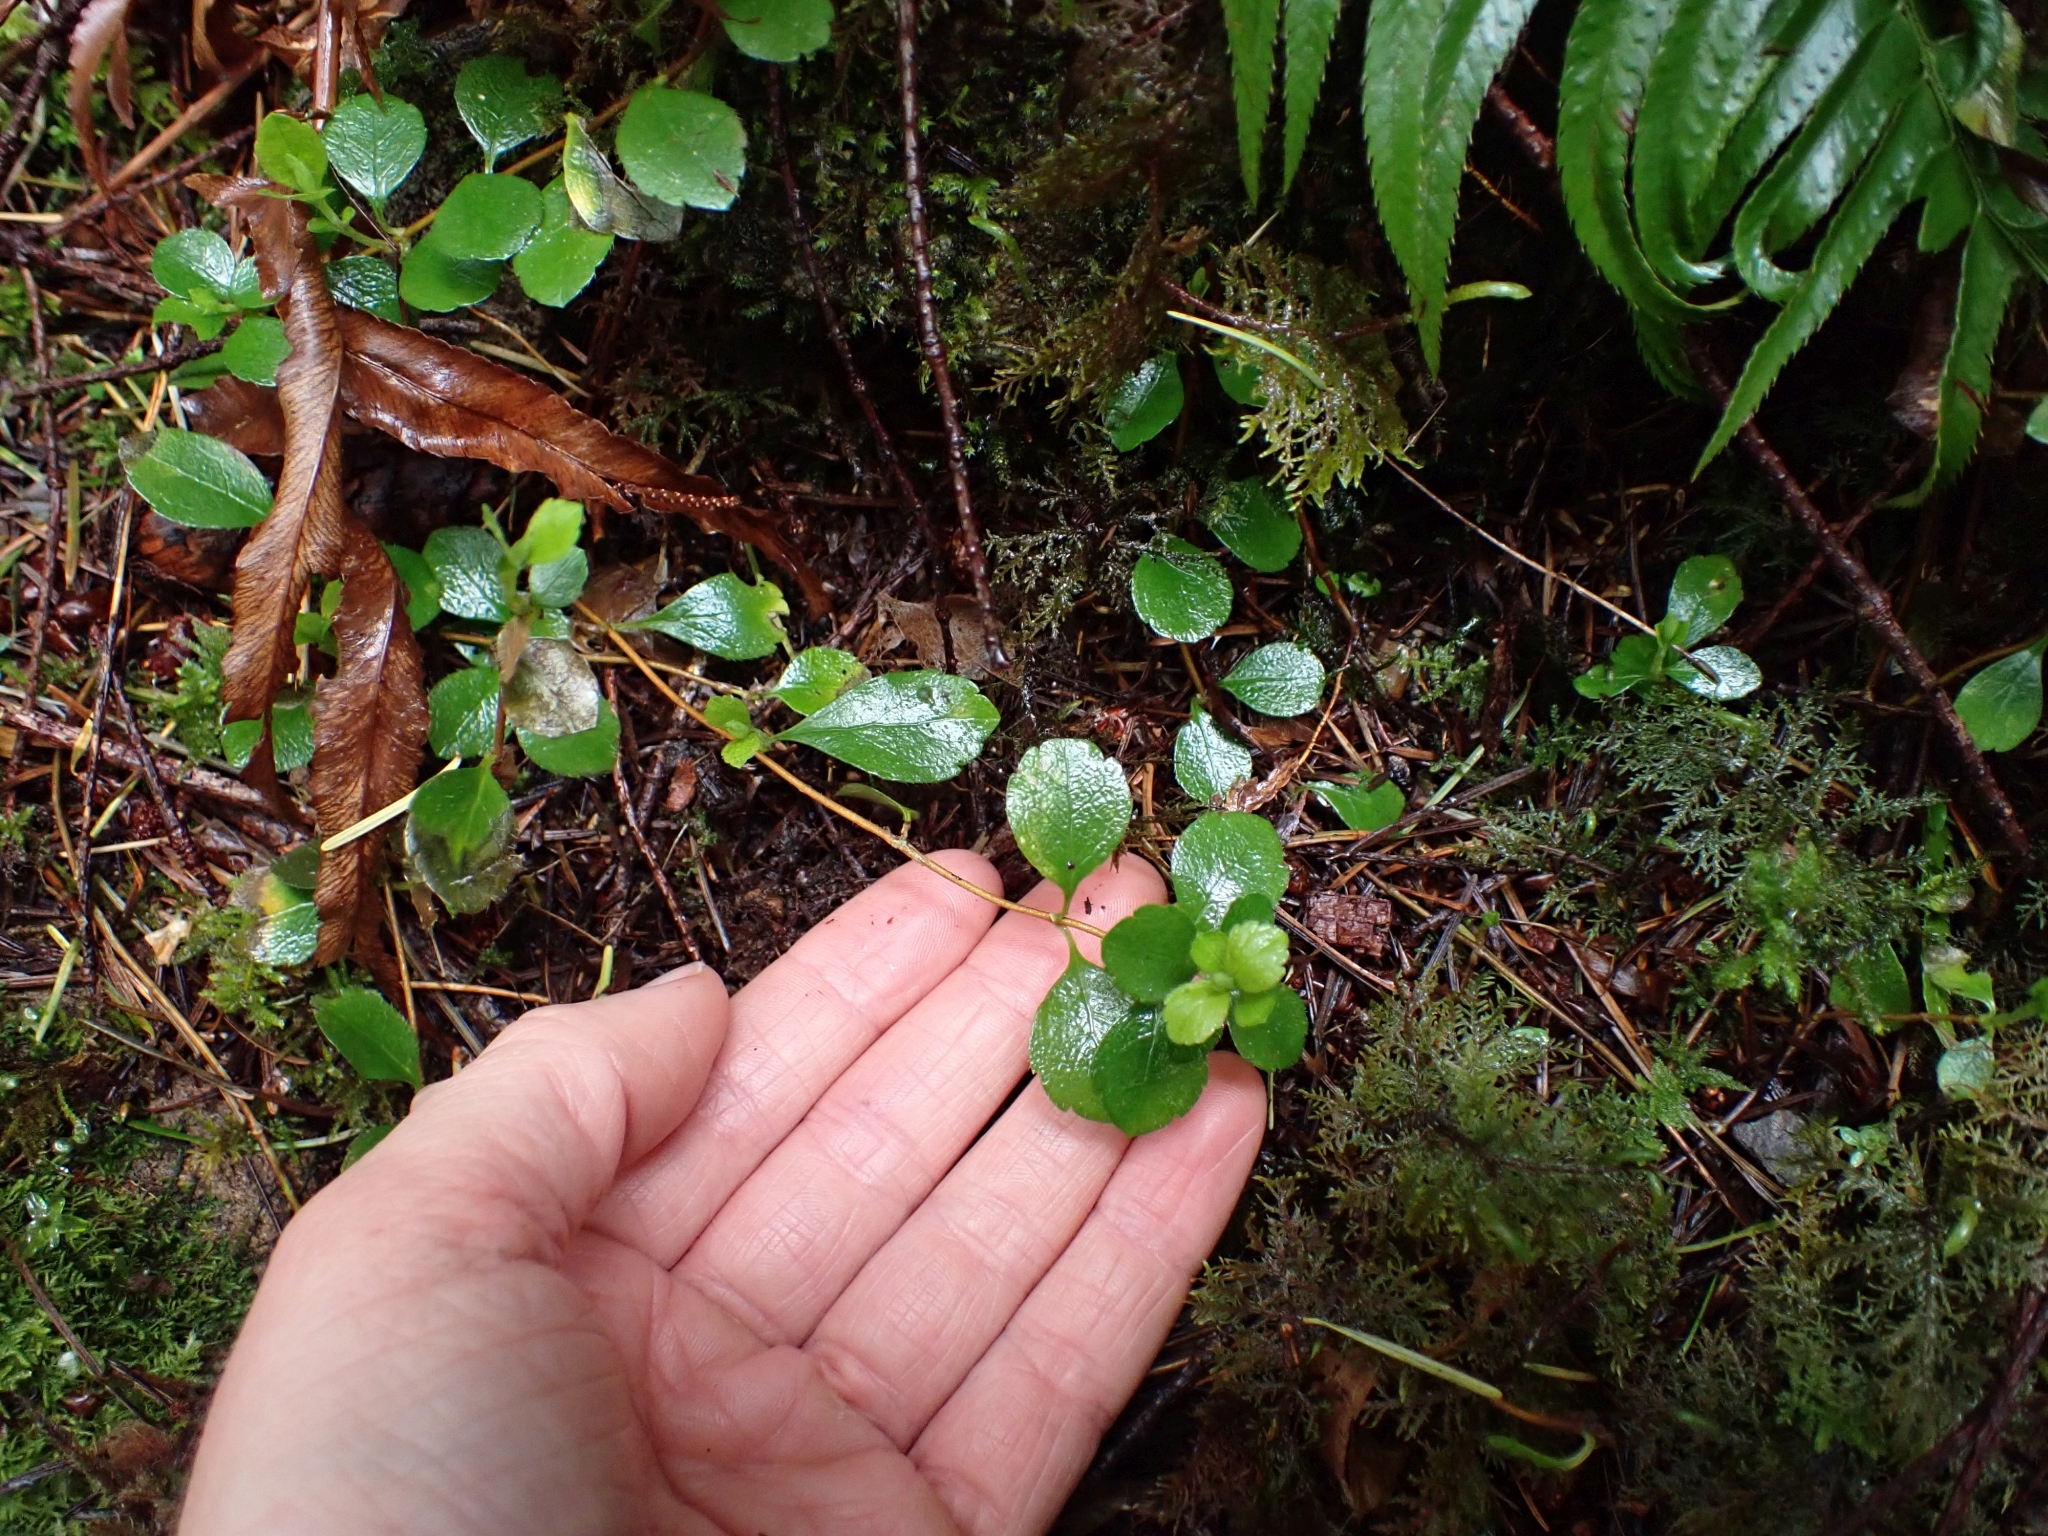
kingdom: Plantae
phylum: Tracheophyta
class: Magnoliopsida
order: Dipsacales
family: Caprifoliaceae
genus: Linnaea
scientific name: Linnaea borealis
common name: Twinflower
